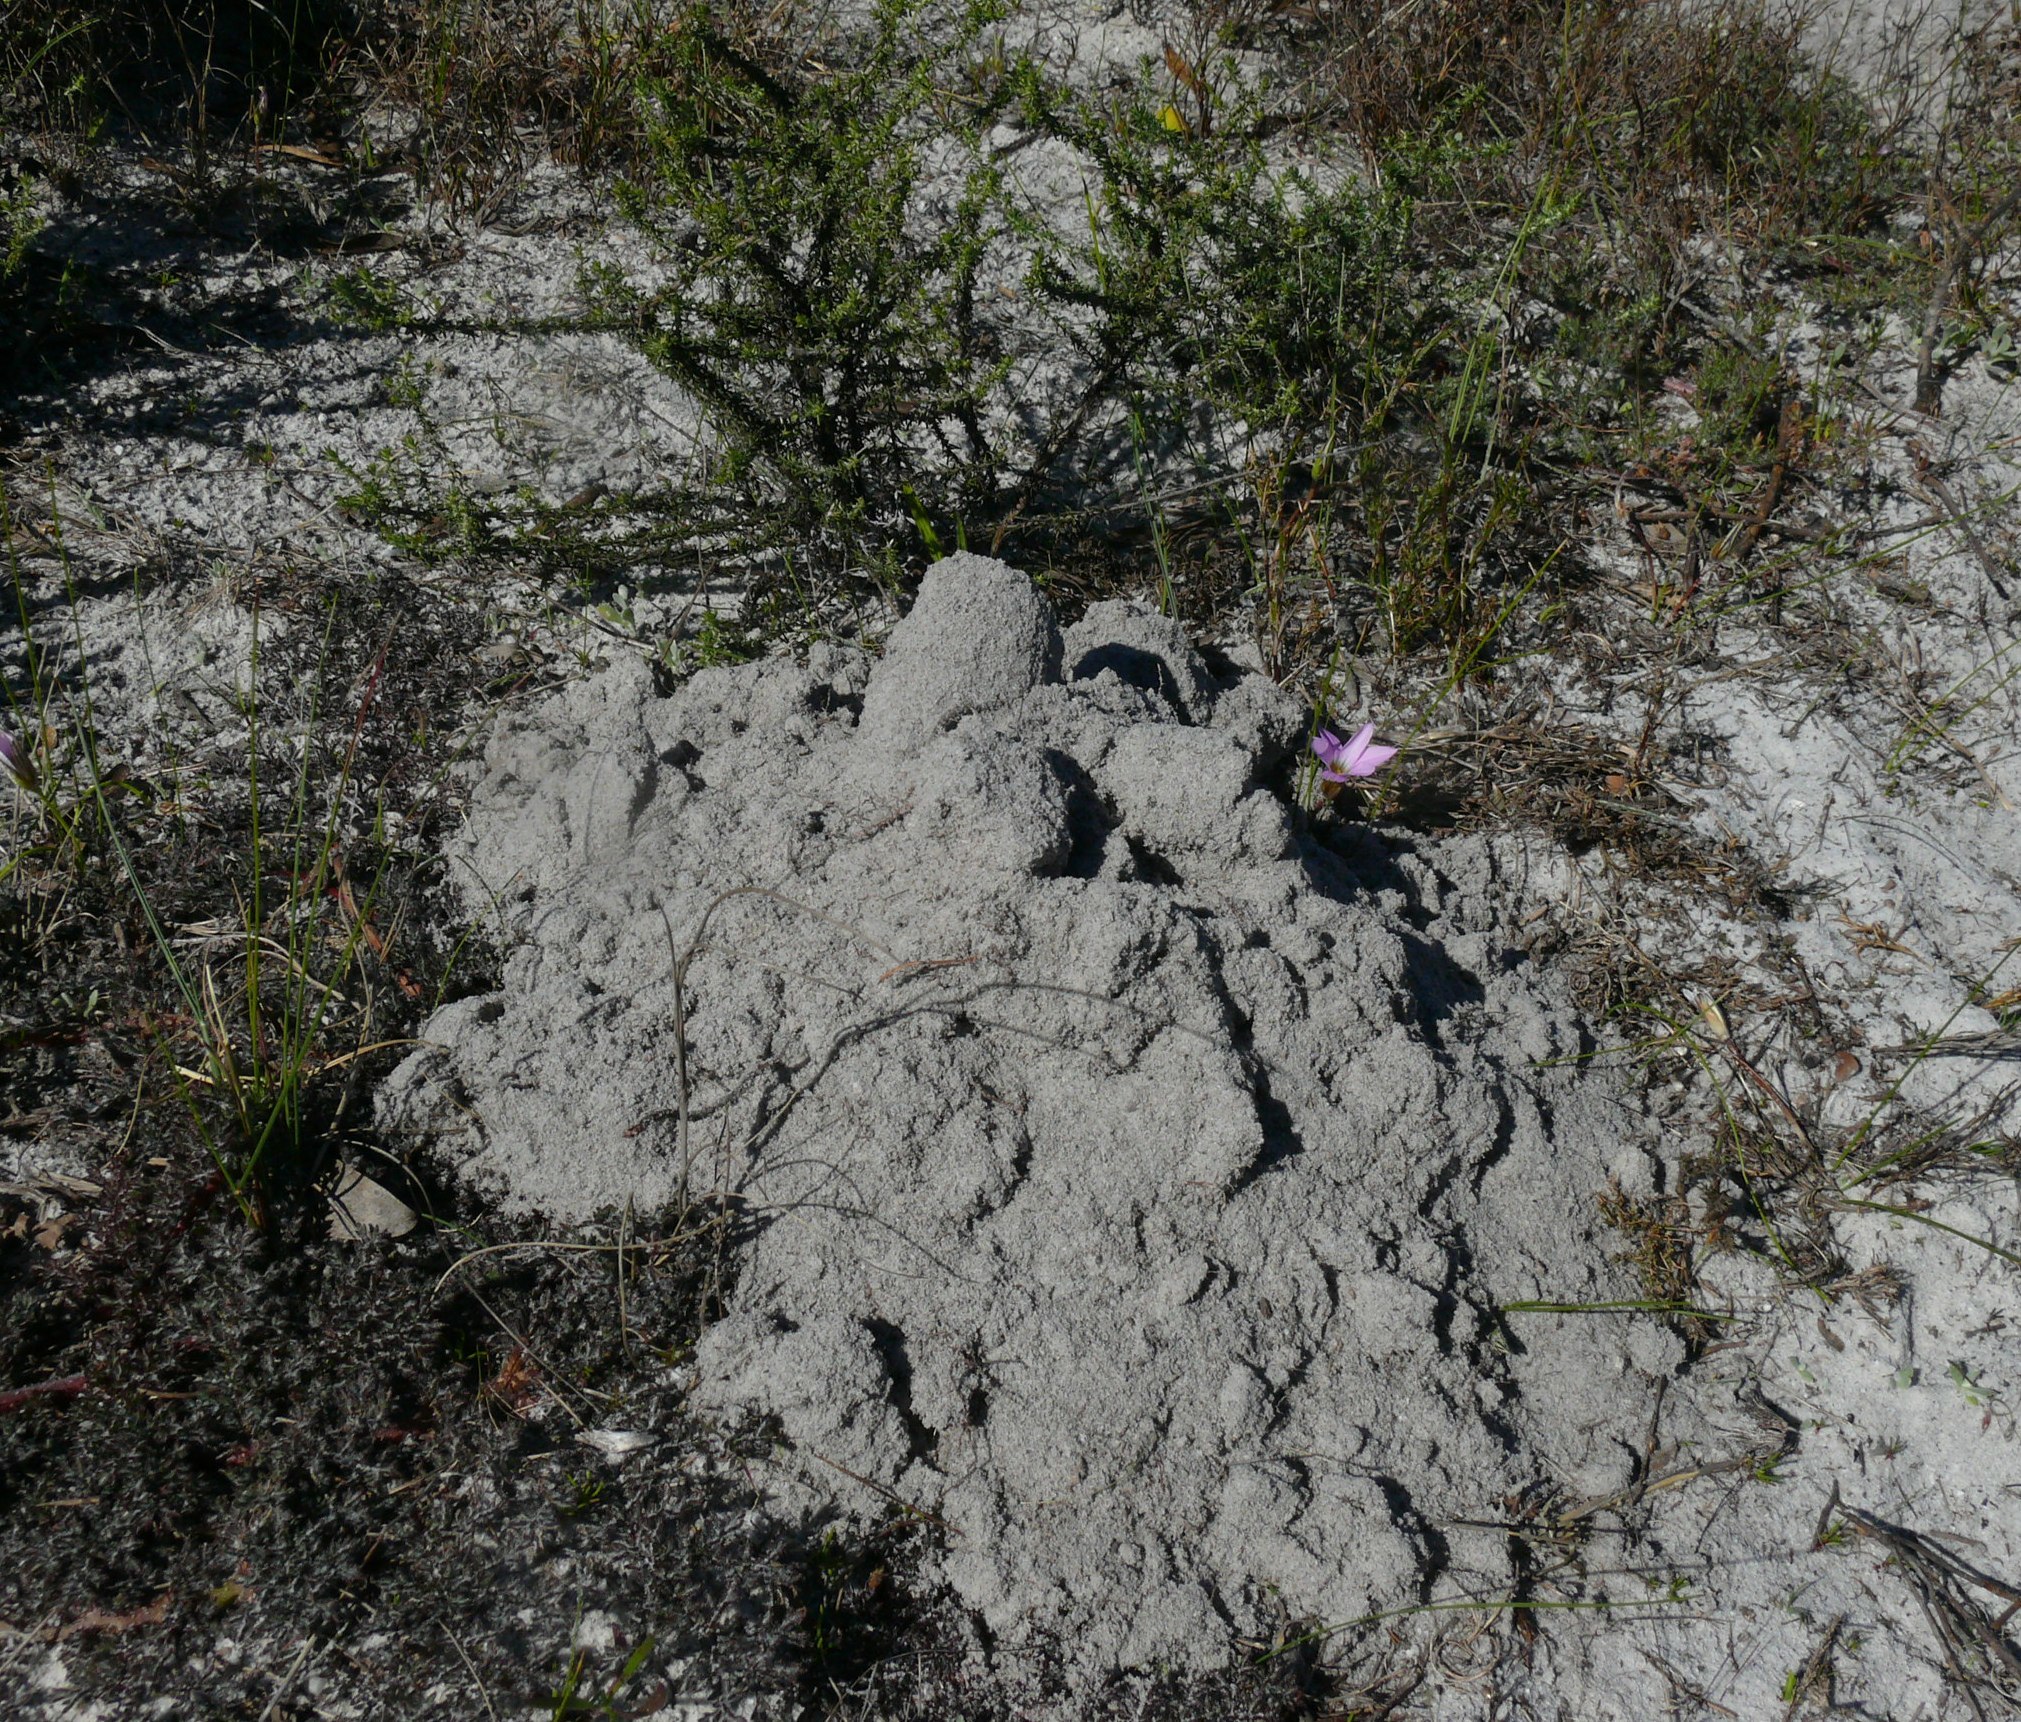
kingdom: Animalia
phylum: Chordata
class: Mammalia
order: Rodentia
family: Bathyergidae
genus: Bathyergus
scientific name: Bathyergus suillus
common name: Cape dune mole rat
